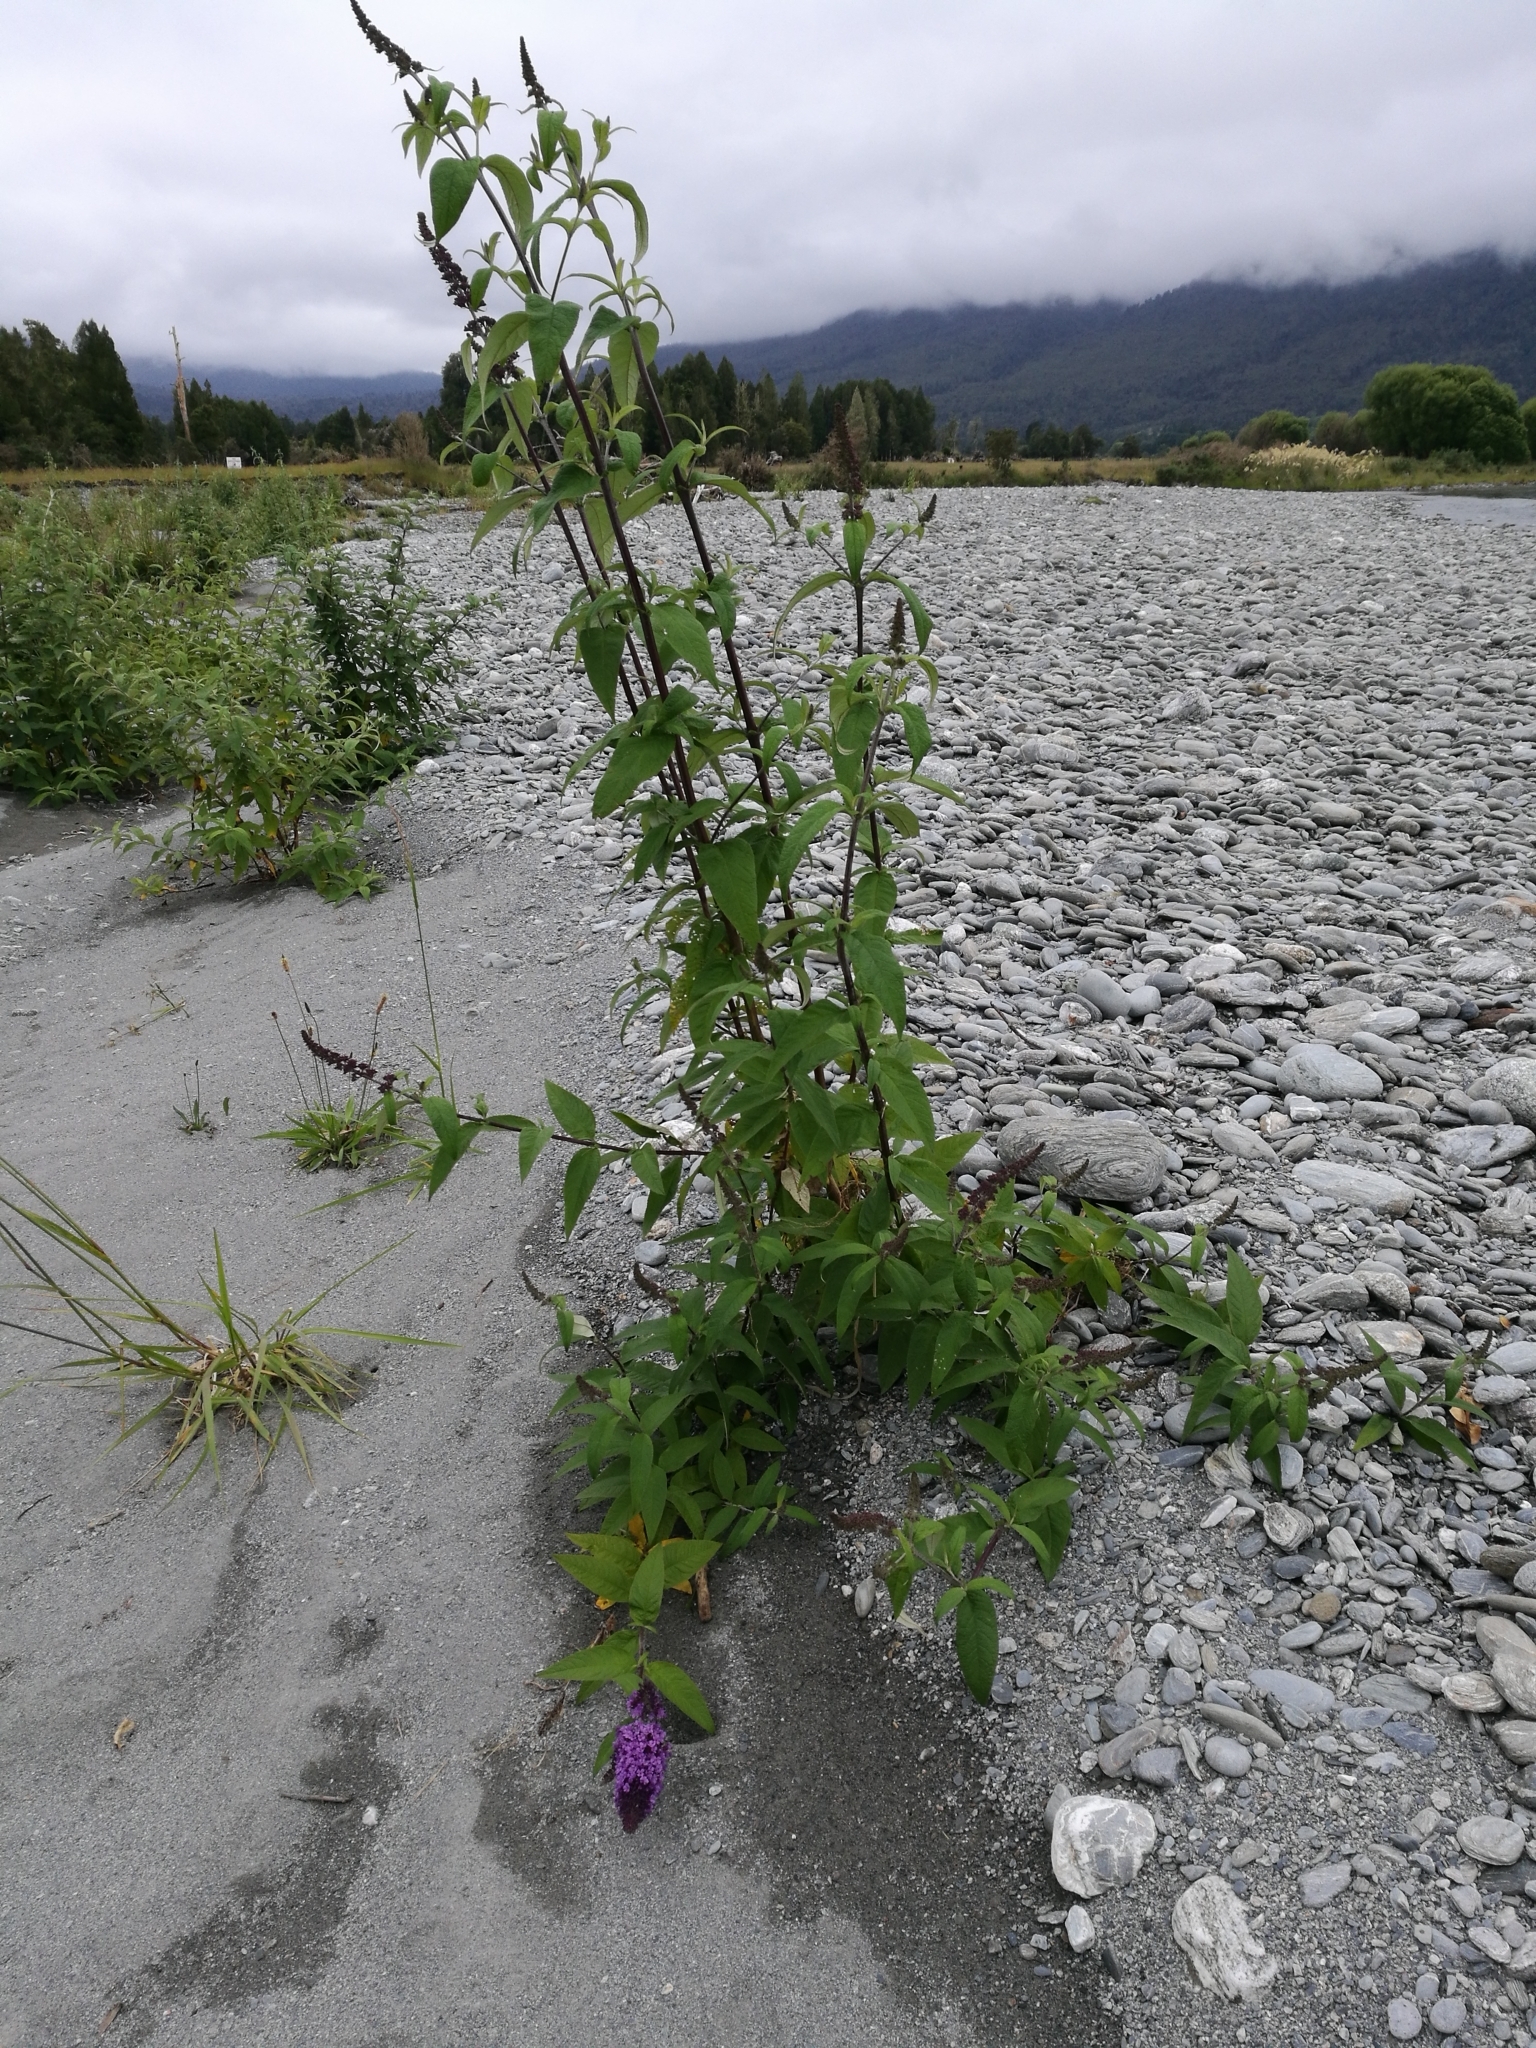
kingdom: Plantae
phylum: Tracheophyta
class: Magnoliopsida
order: Lamiales
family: Scrophulariaceae
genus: Buddleja
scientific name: Buddleja davidii
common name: Butterfly-bush
